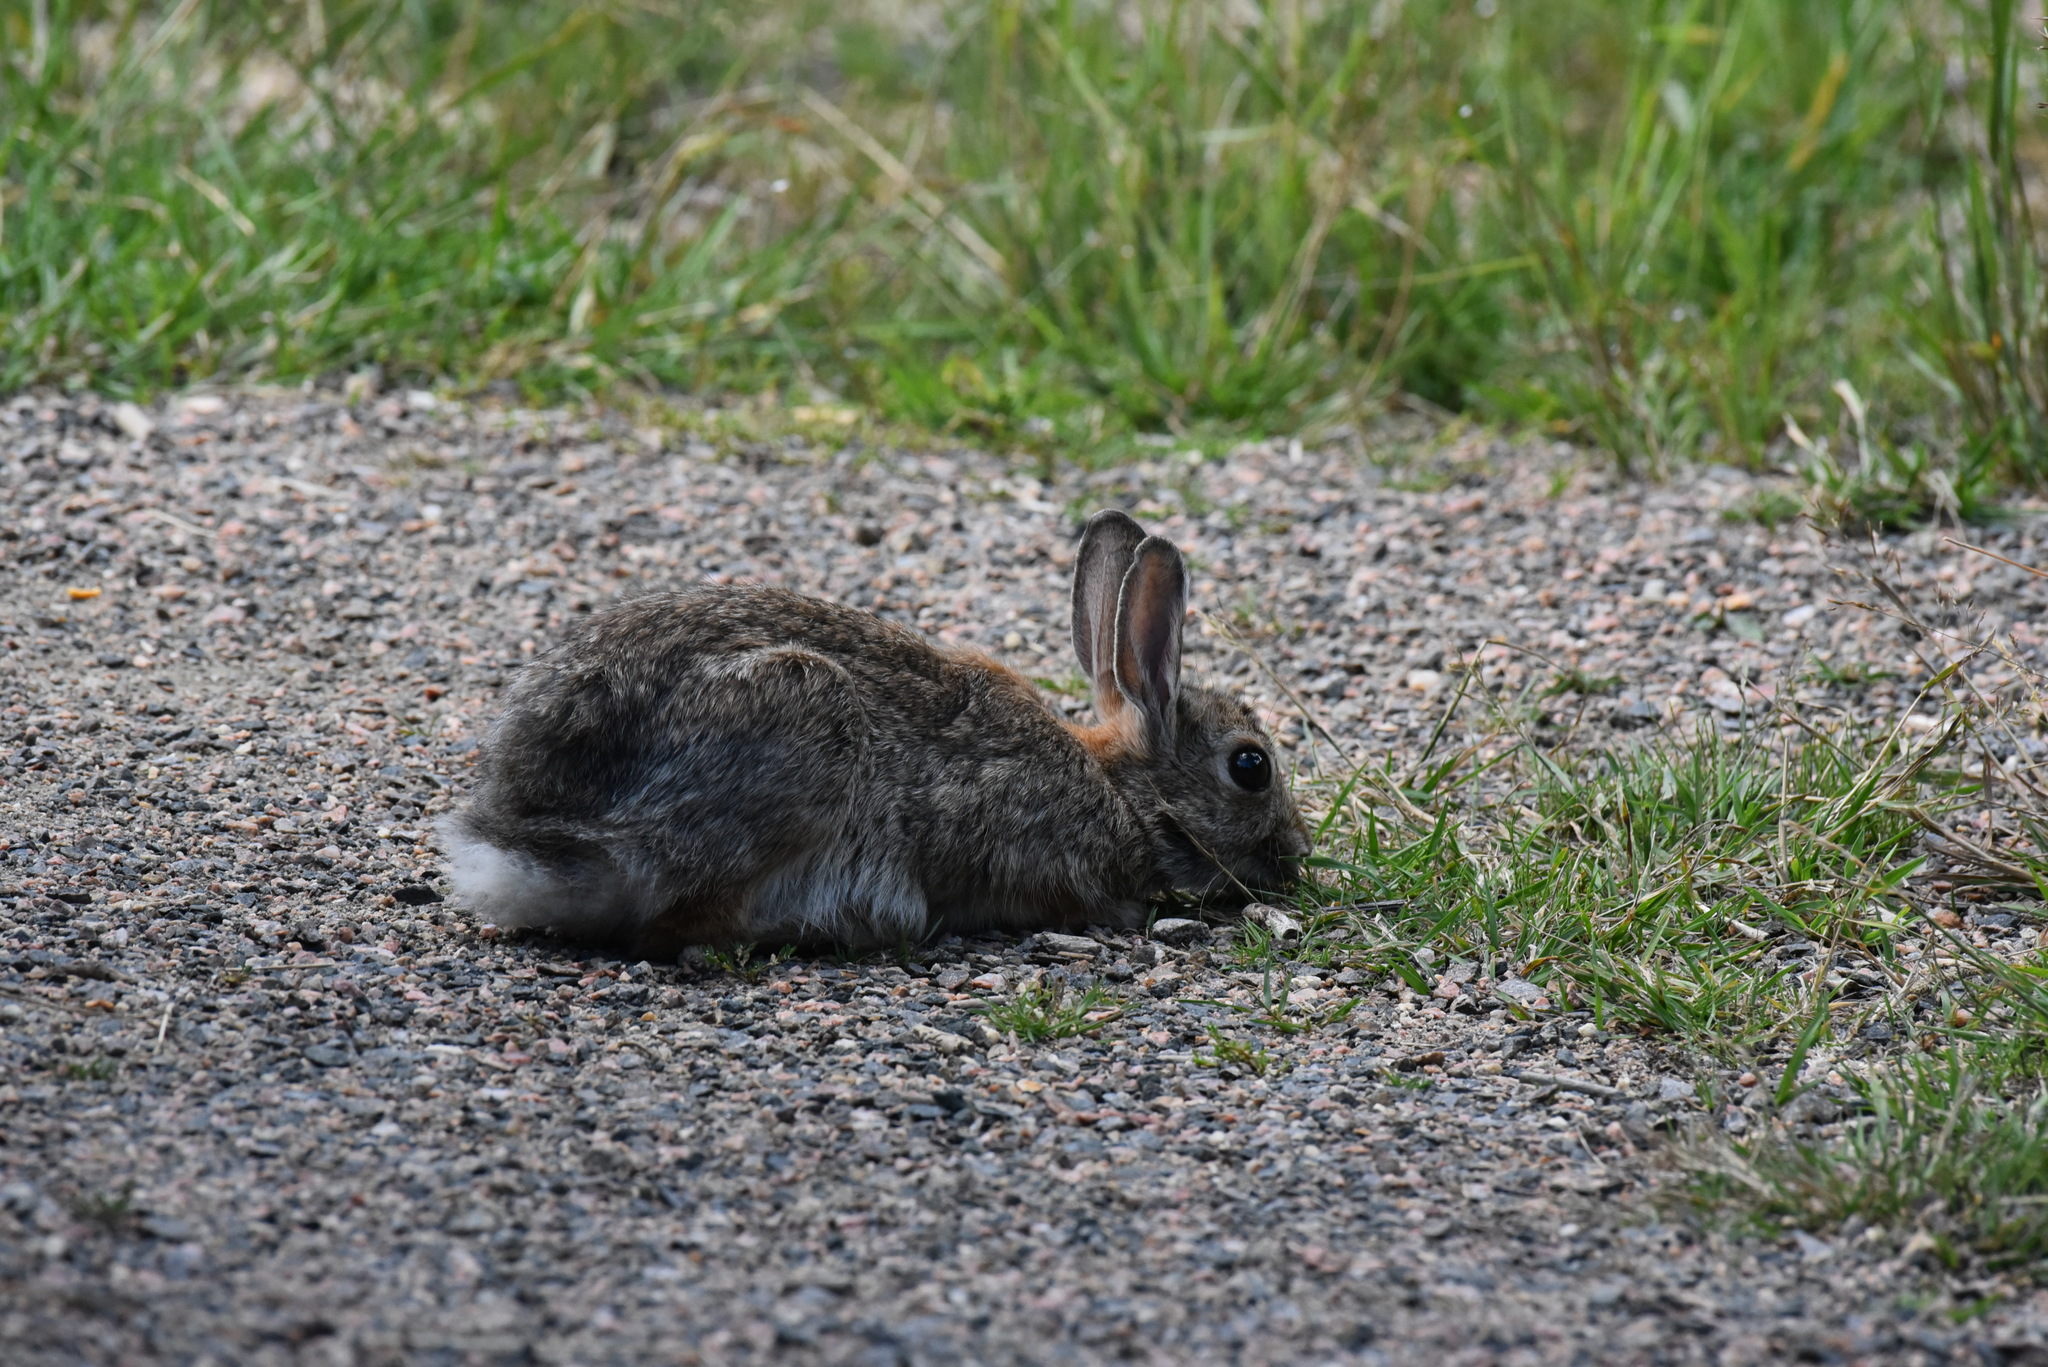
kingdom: Animalia
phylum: Chordata
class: Mammalia
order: Lagomorpha
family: Leporidae
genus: Sylvilagus
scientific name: Sylvilagus nuttallii
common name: Mountain cottontail
